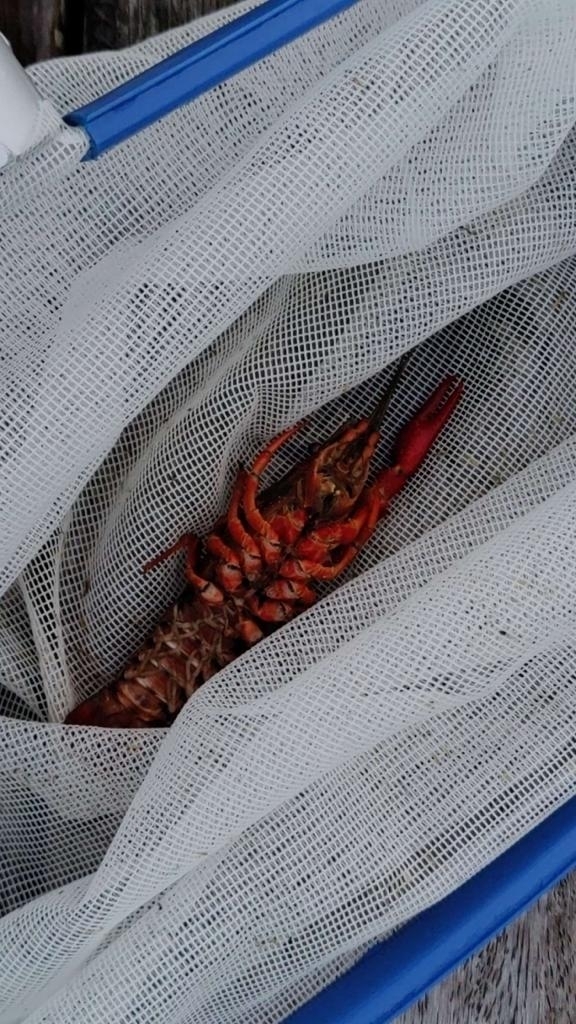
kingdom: Animalia
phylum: Arthropoda
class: Malacostraca
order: Decapoda
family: Cambaridae
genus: Procambarus
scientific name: Procambarus clarkii
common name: Red swamp crayfish
